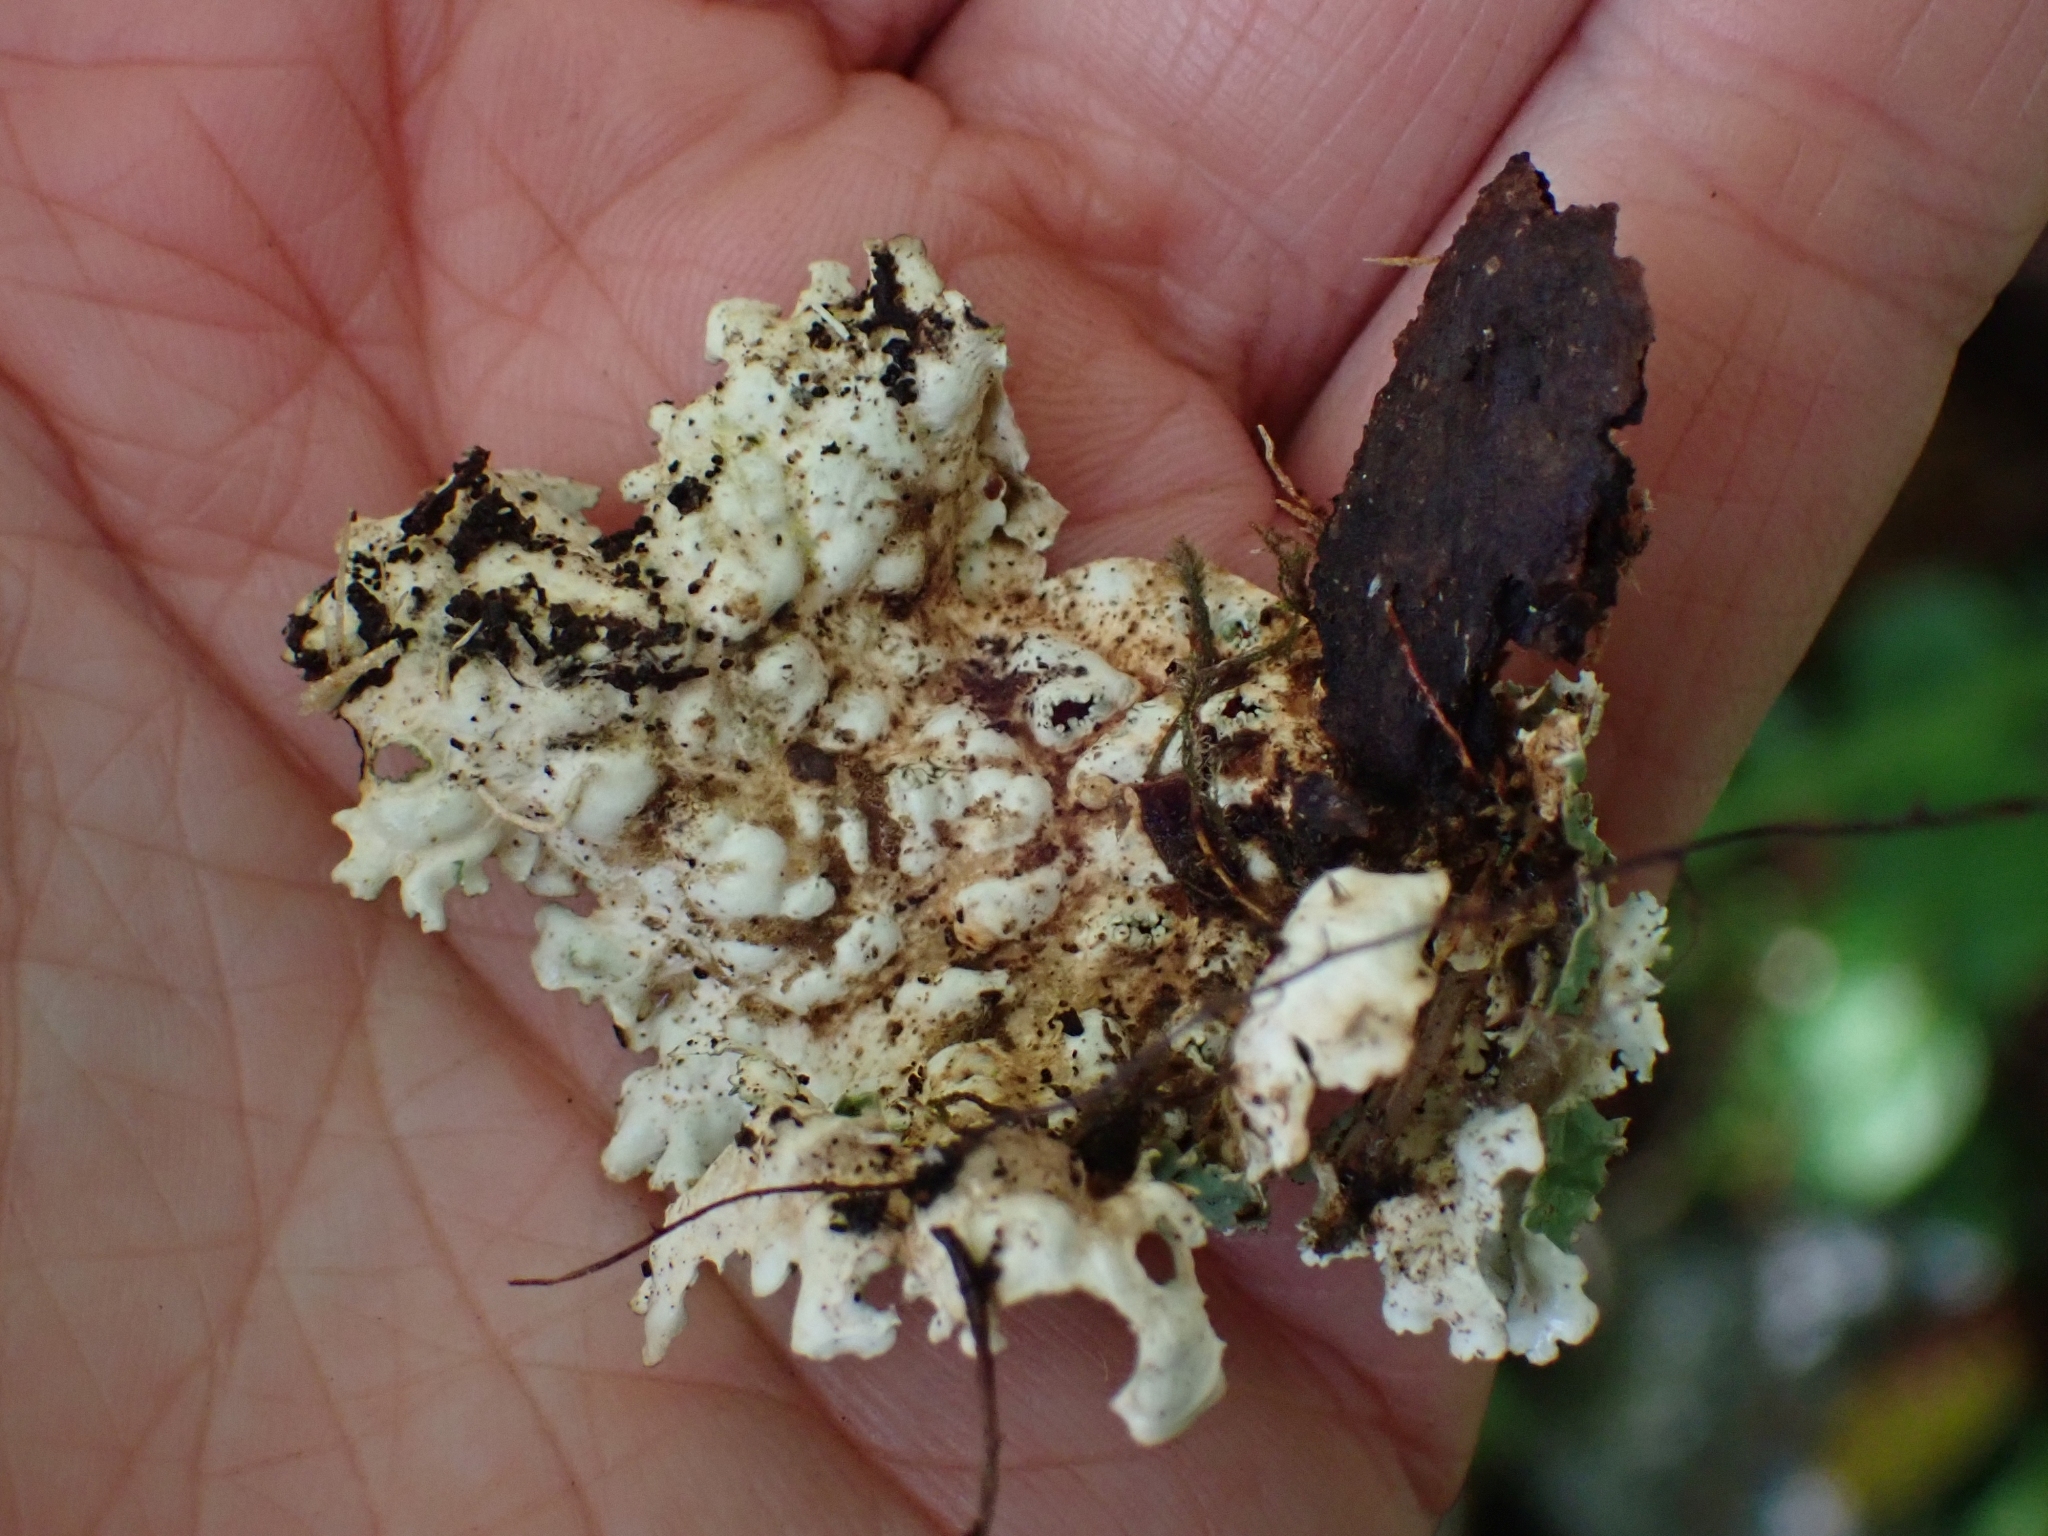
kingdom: Fungi
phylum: Ascomycota
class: Lecanoromycetes
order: Peltigerales
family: Lobariaceae
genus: Lobaria
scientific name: Lobaria oregana
